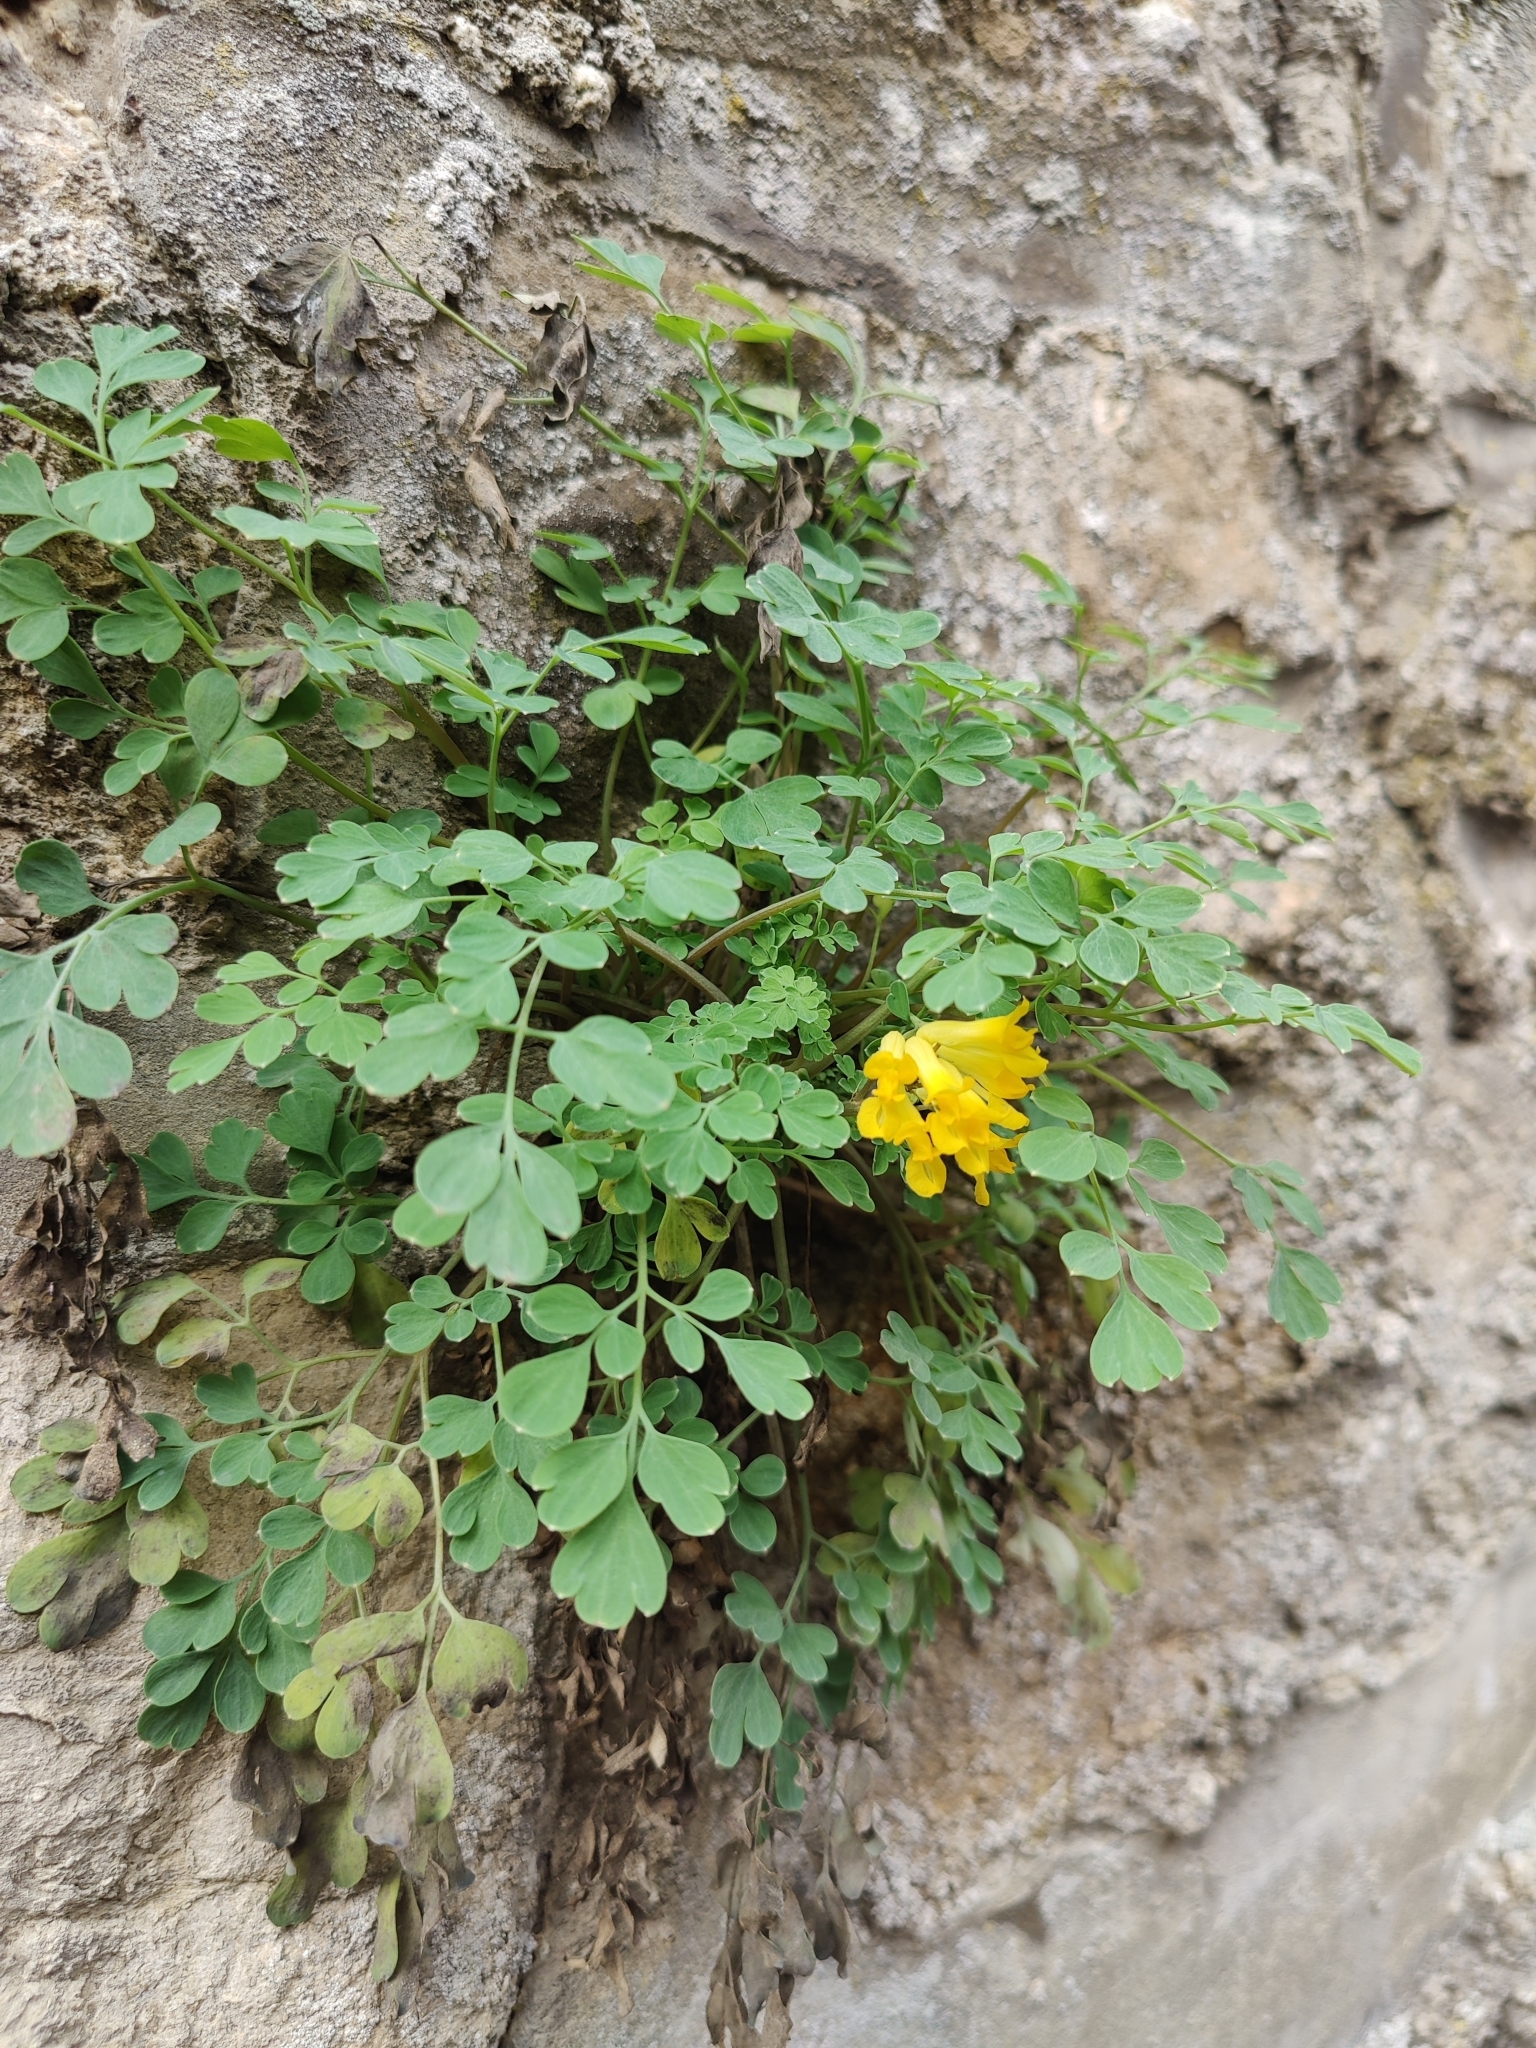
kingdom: Plantae
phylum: Tracheophyta
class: Magnoliopsida
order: Ranunculales
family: Papaveraceae
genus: Pseudofumaria
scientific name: Pseudofumaria lutea
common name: Yellow corydalis
